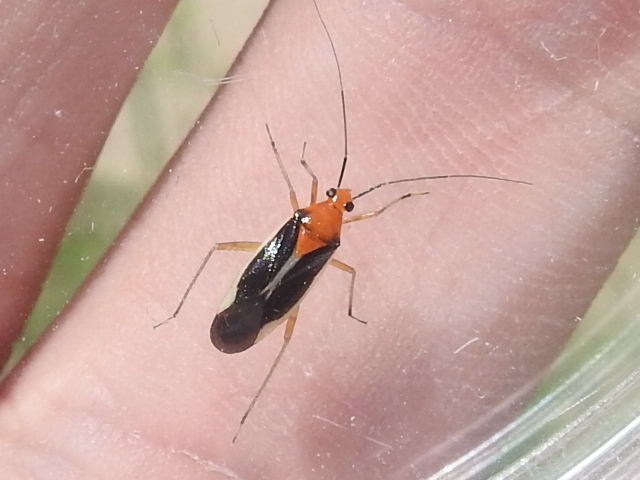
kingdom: Animalia
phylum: Arthropoda
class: Insecta
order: Hemiptera
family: Miridae
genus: Ganocapsus
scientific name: Ganocapsus filiformis
